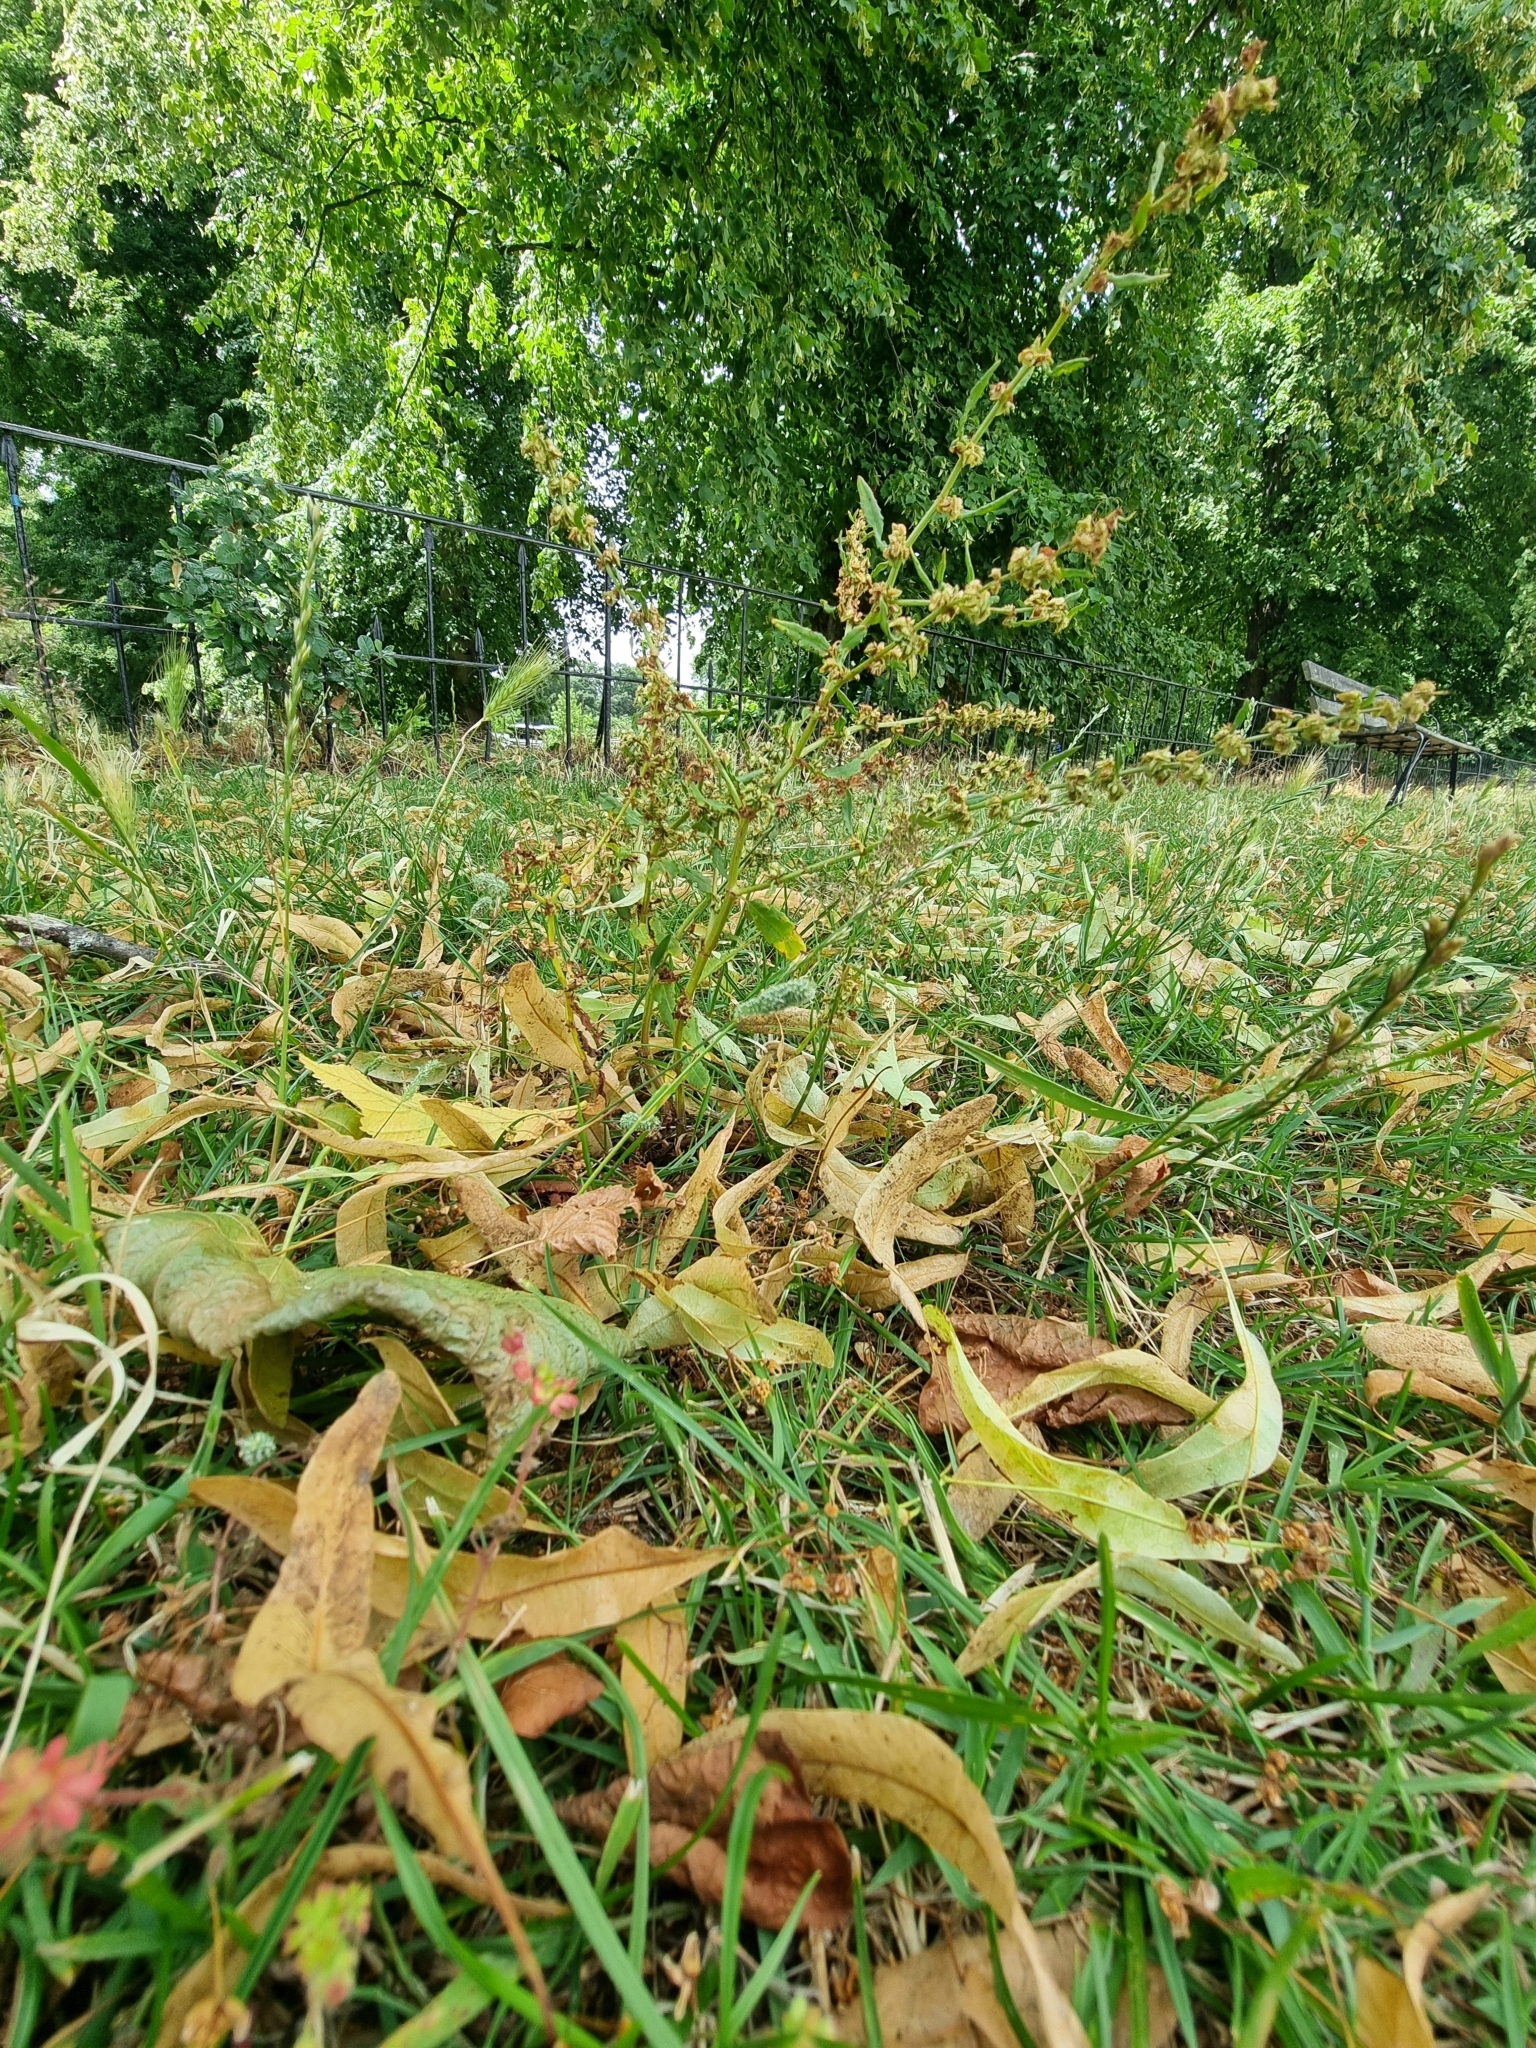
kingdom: Plantae
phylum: Tracheophyta
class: Magnoliopsida
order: Caryophyllales
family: Polygonaceae
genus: Rumex
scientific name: Rumex pulcher
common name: Fiddle dock
